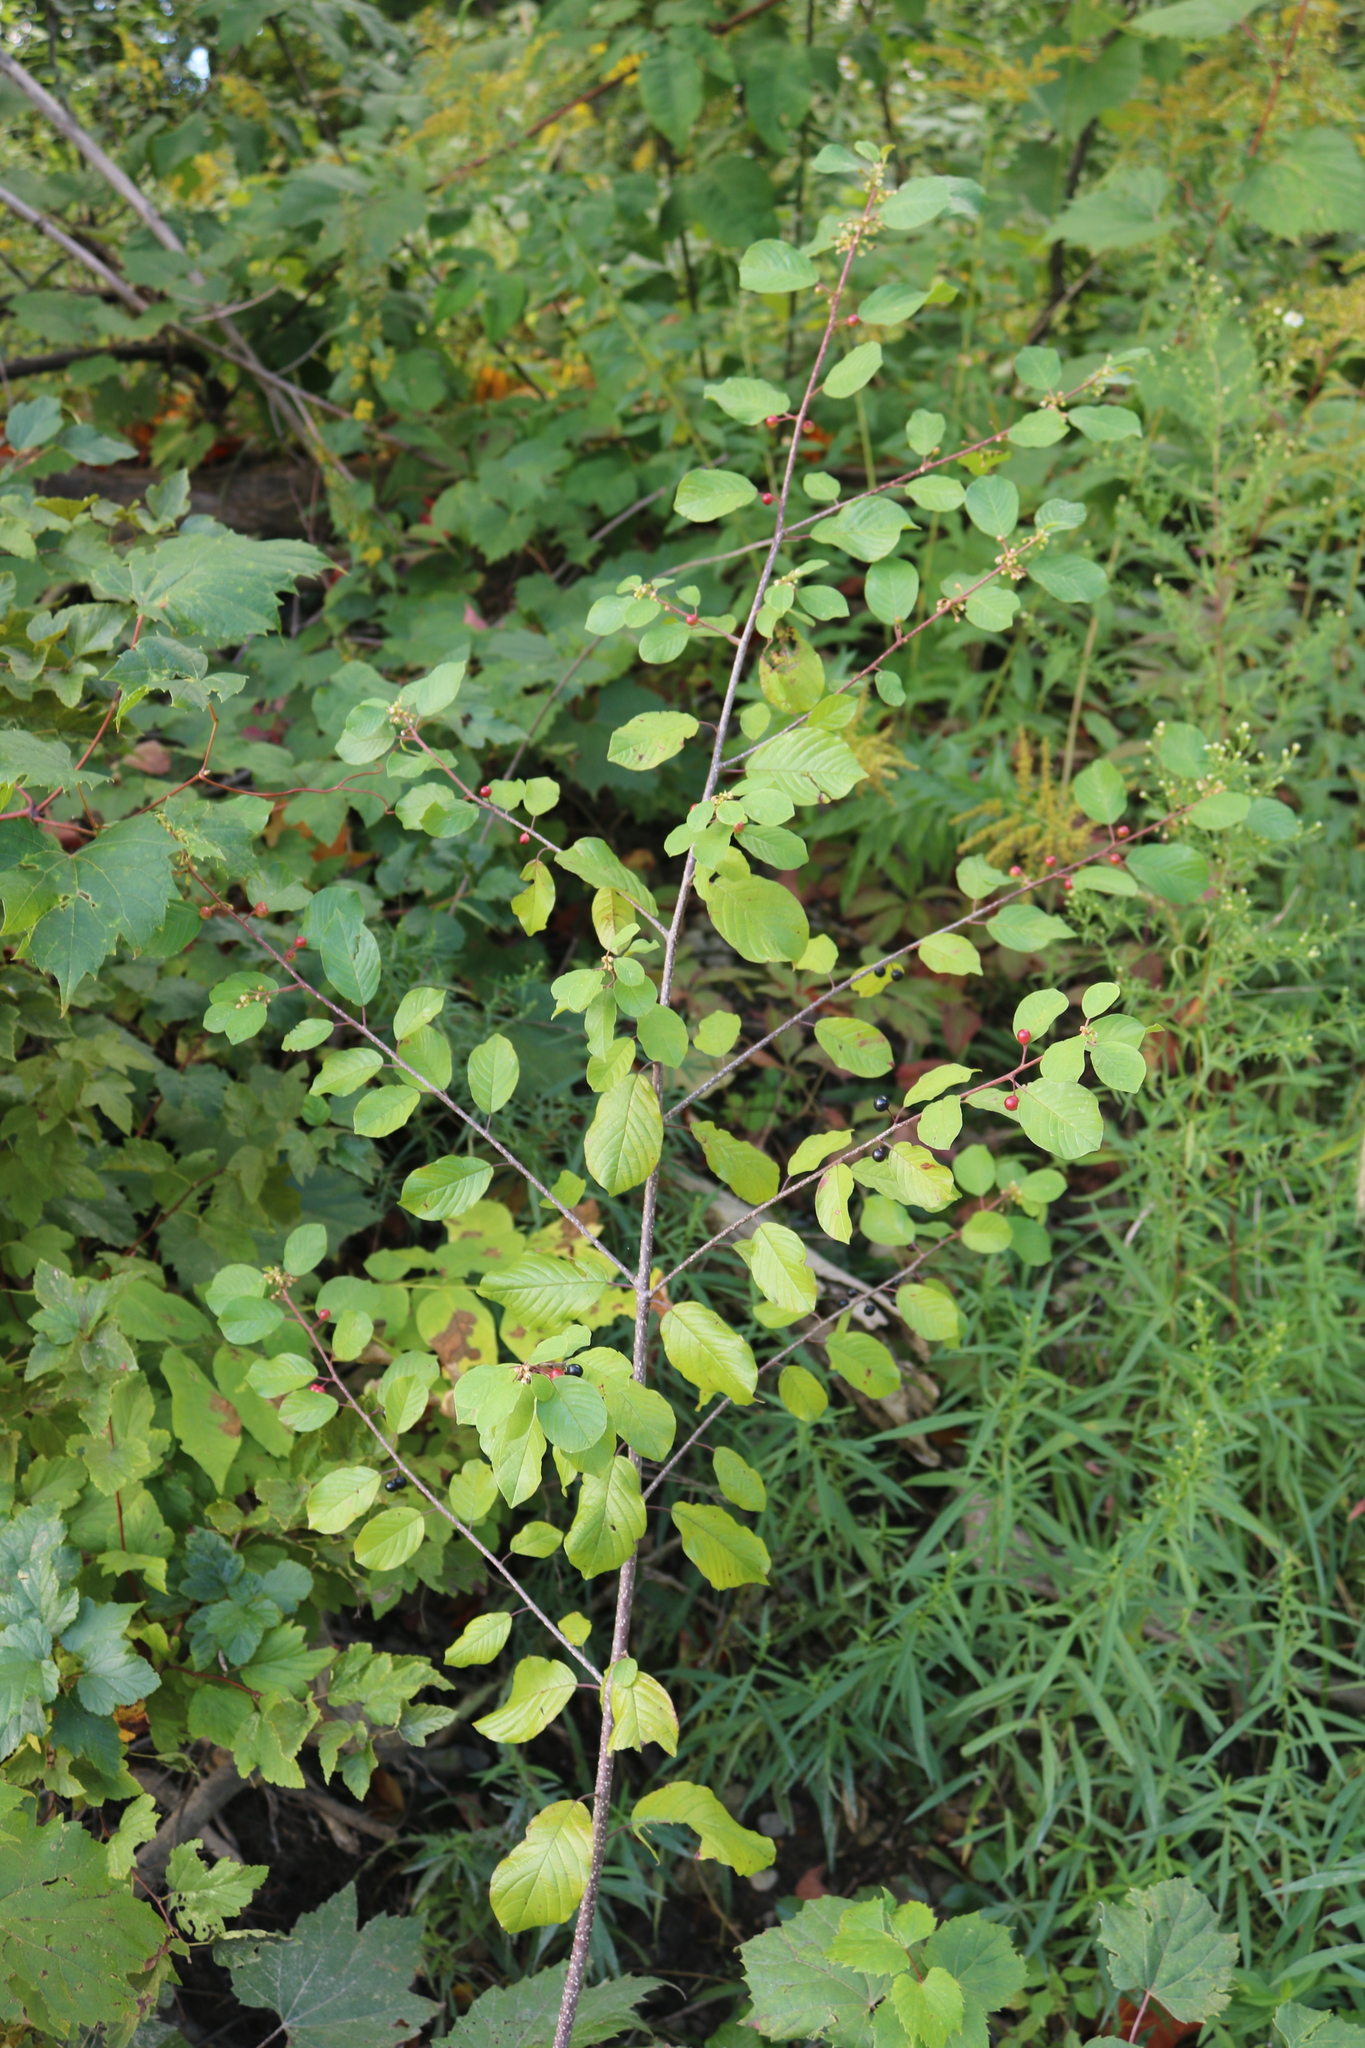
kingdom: Plantae
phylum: Tracheophyta
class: Magnoliopsida
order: Rosales
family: Rhamnaceae
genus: Frangula
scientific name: Frangula alnus
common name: Alder buckthorn
